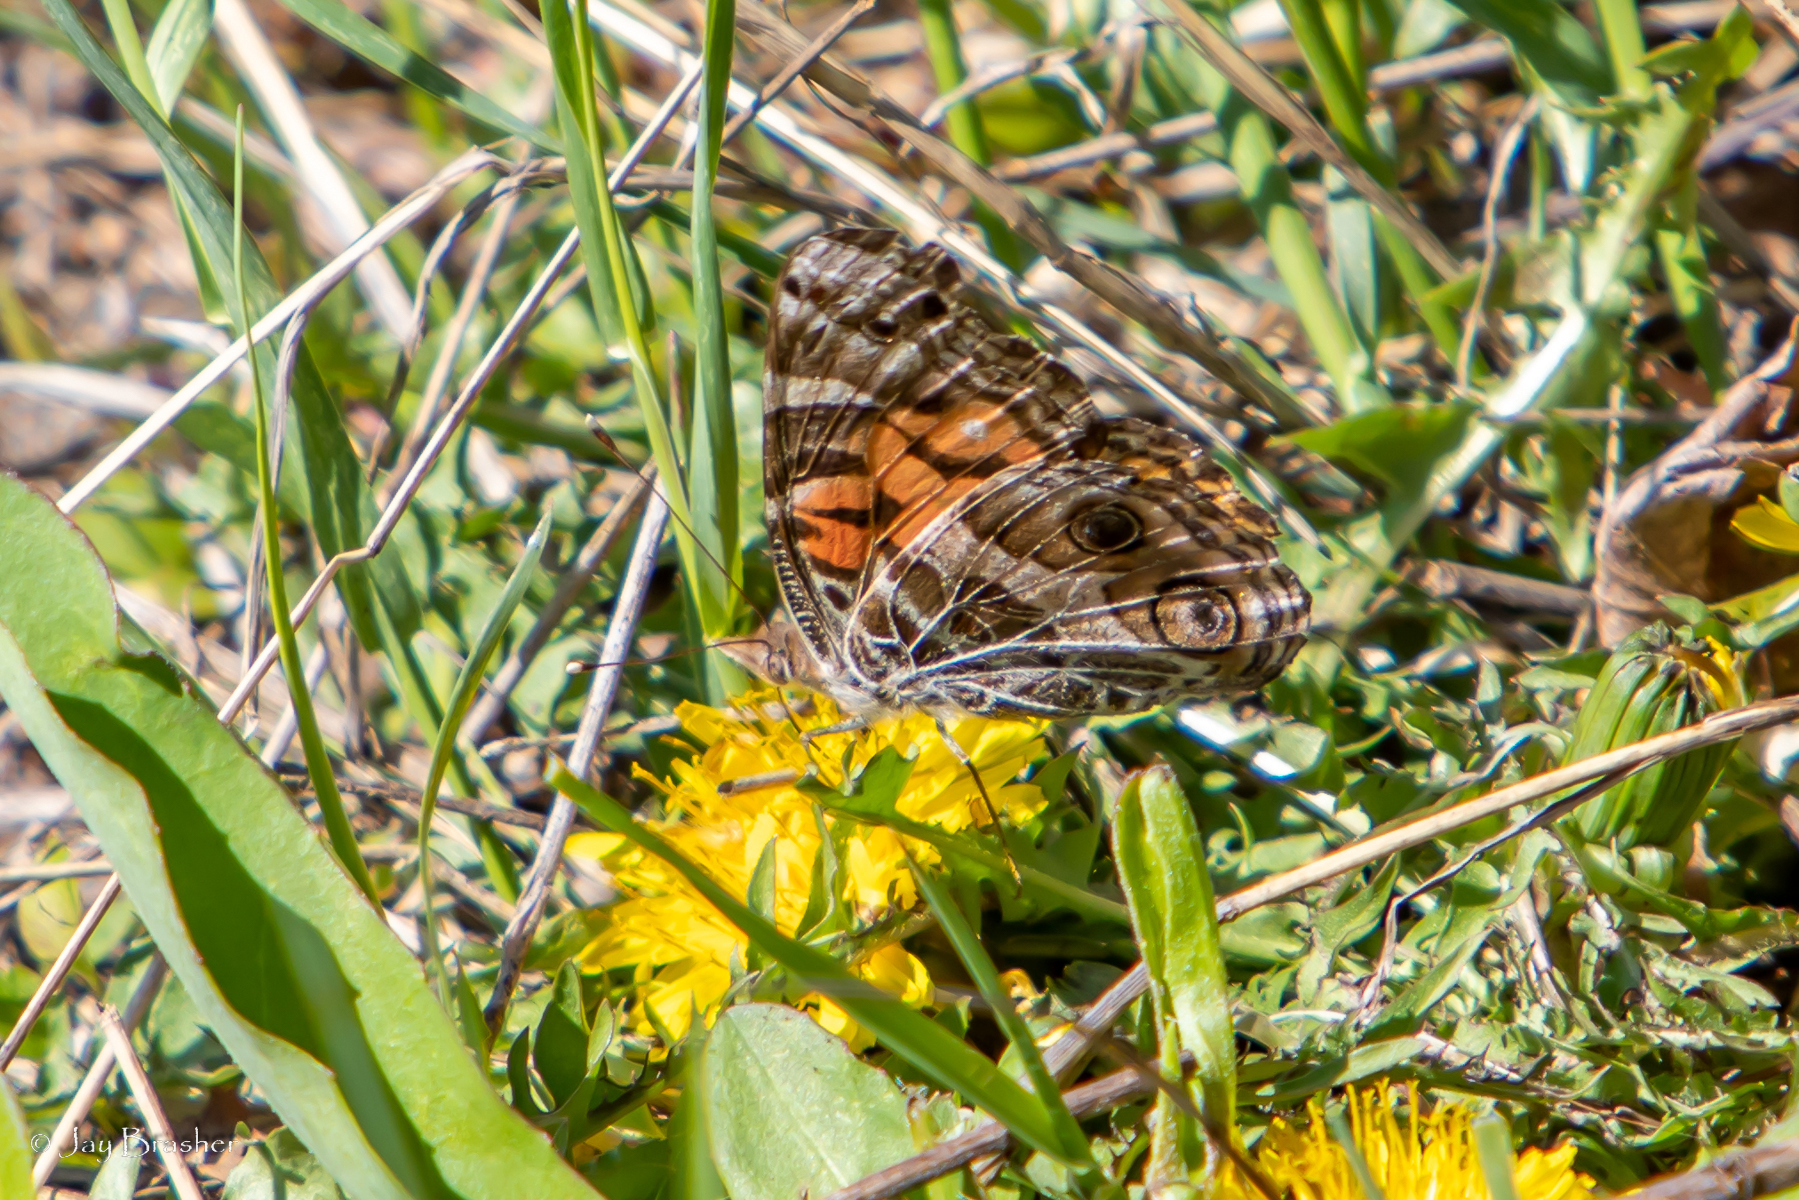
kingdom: Animalia
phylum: Arthropoda
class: Insecta
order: Lepidoptera
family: Nymphalidae
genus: Vanessa
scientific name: Vanessa virginiensis
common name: American lady
